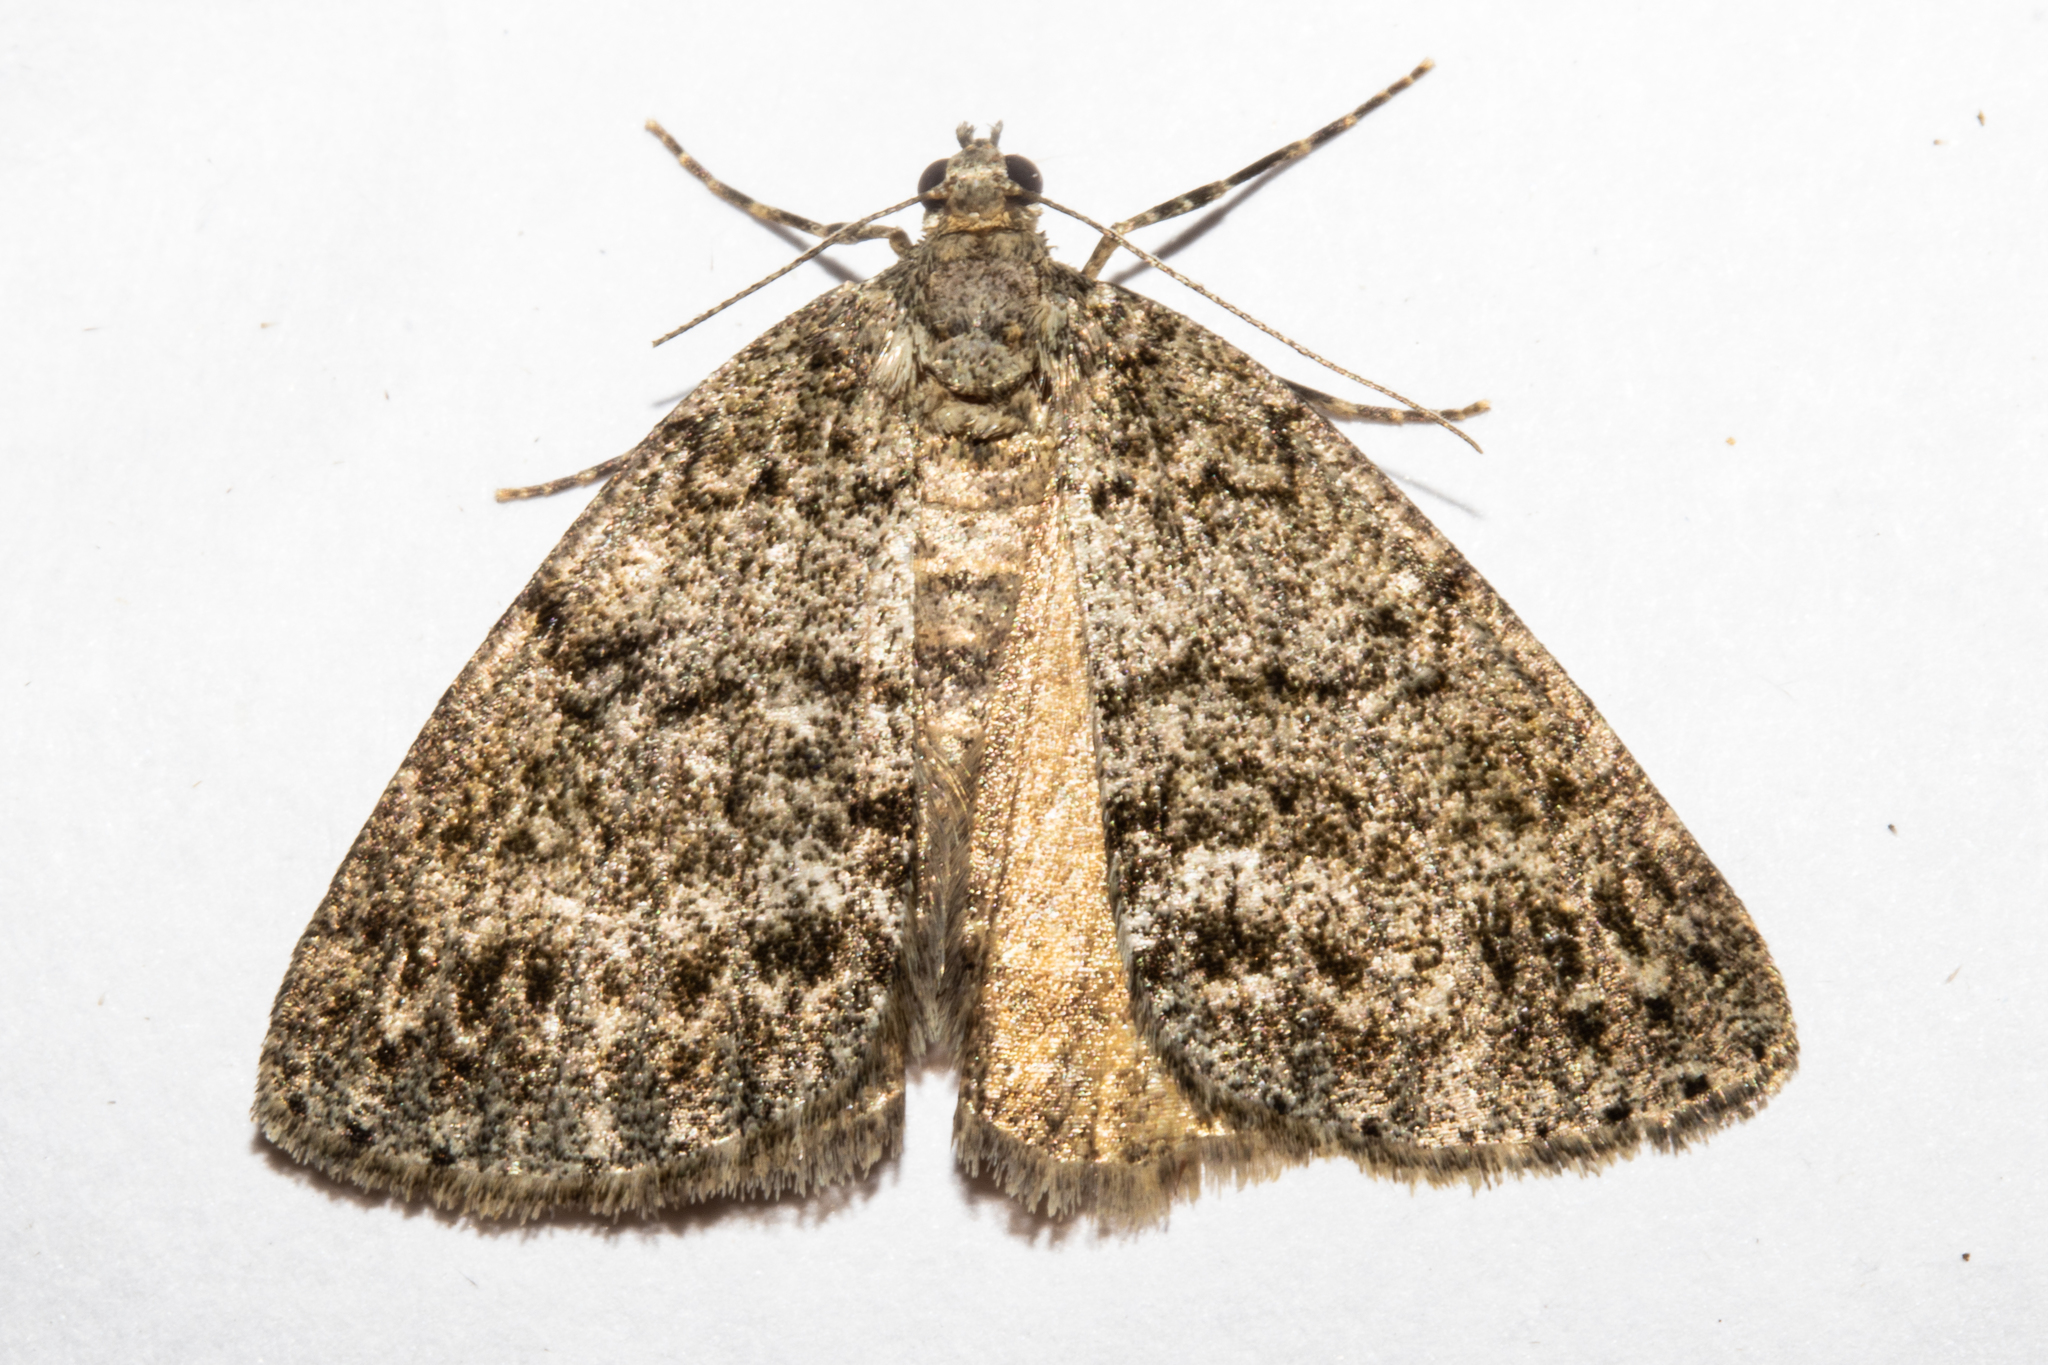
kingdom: Animalia
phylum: Arthropoda
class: Insecta
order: Lepidoptera
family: Geometridae
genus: Pseudocoremia
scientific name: Pseudocoremia indistincta
